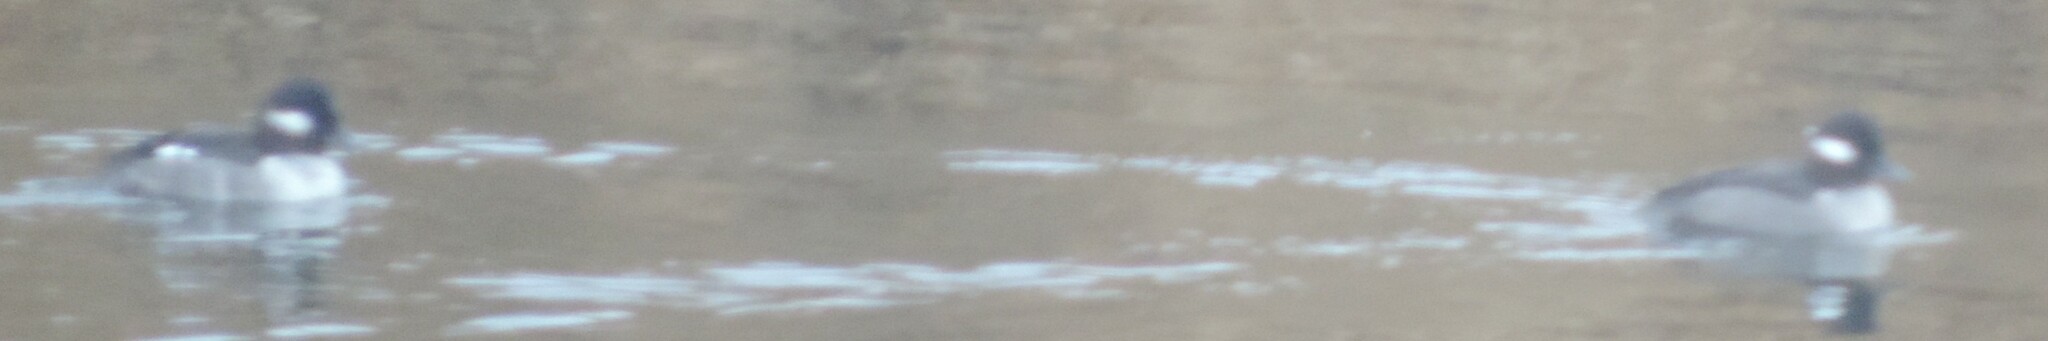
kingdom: Animalia
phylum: Chordata
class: Aves
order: Anseriformes
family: Anatidae
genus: Bucephala
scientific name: Bucephala albeola
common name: Bufflehead
